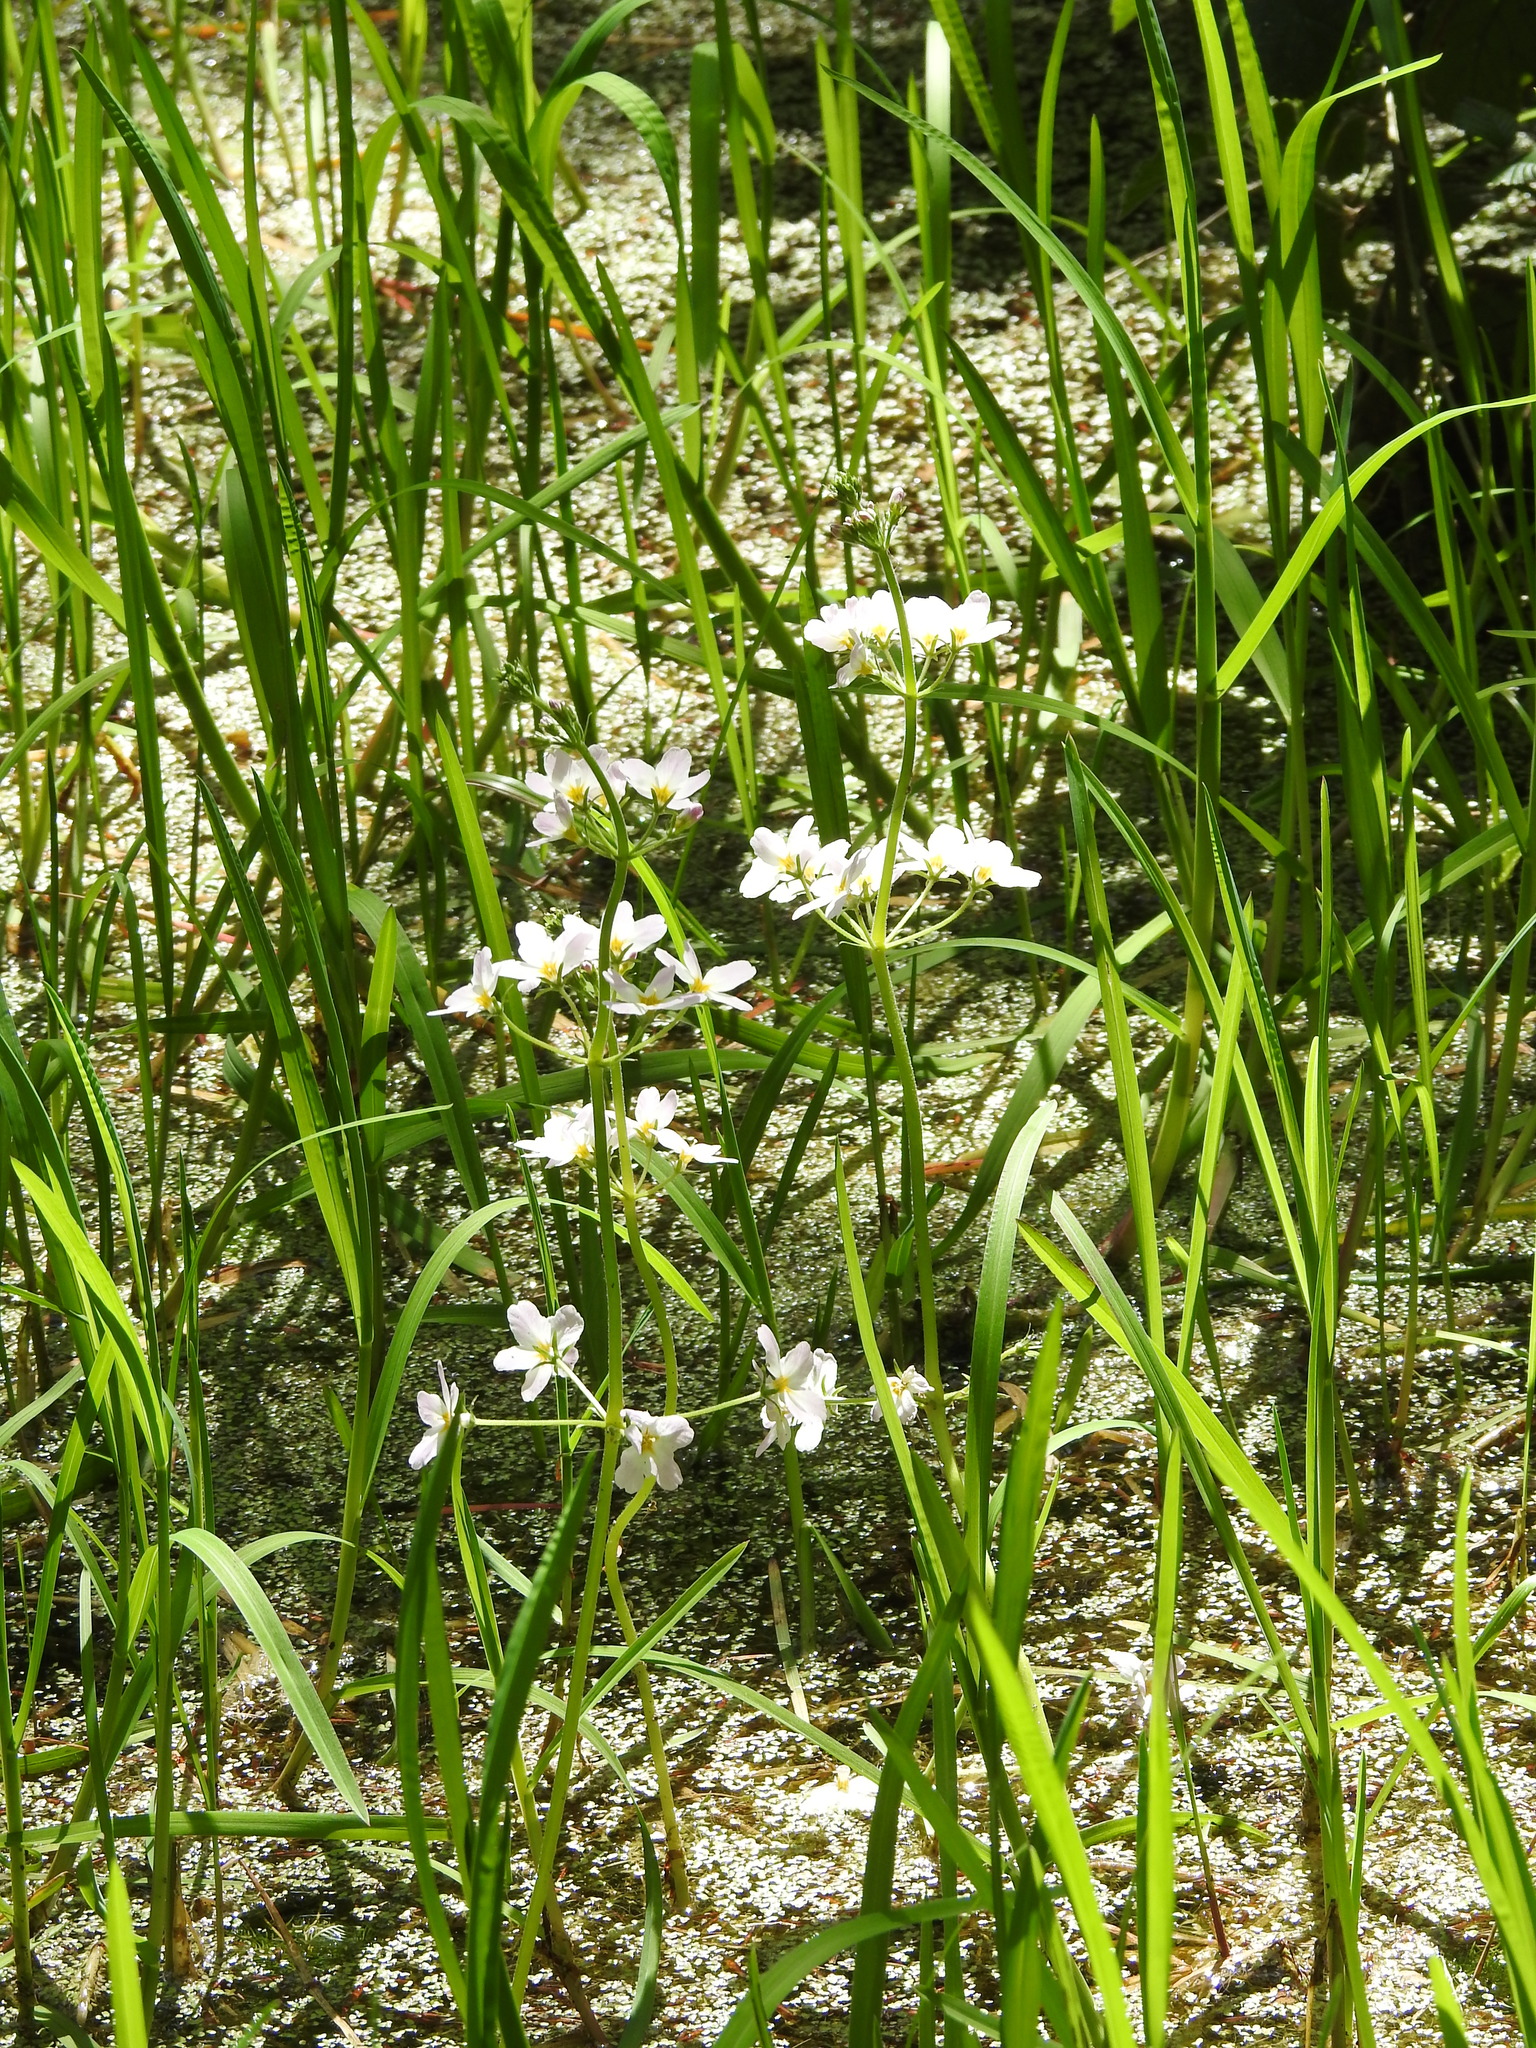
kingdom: Plantae
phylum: Tracheophyta
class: Magnoliopsida
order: Ericales
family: Primulaceae
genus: Hottonia
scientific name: Hottonia palustris
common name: Water-violet
